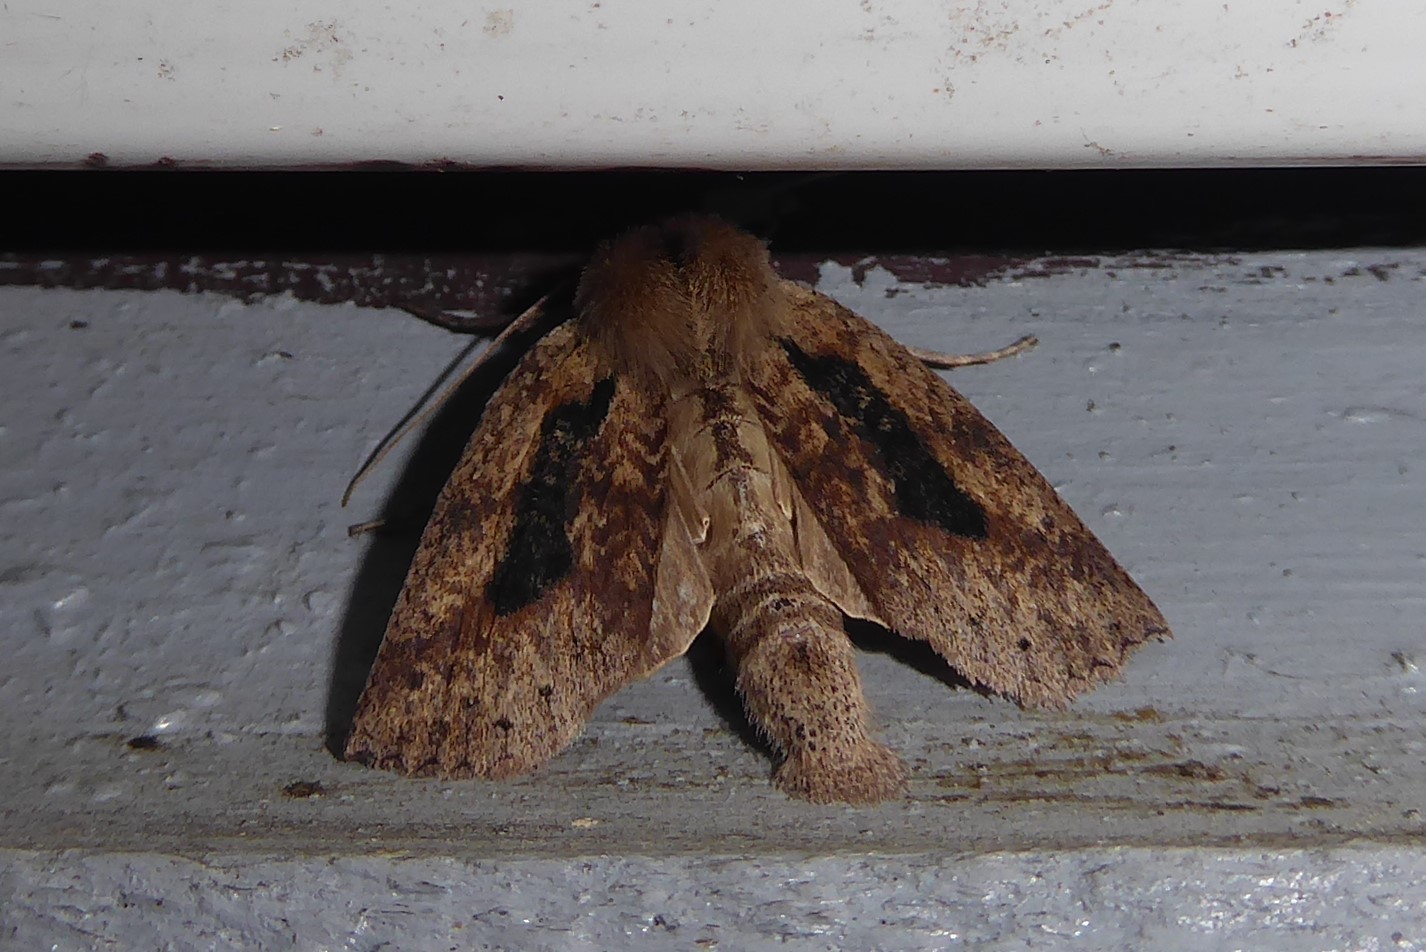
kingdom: Animalia
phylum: Arthropoda
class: Insecta
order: Lepidoptera
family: Geometridae
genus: Declana
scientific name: Declana leptomera
